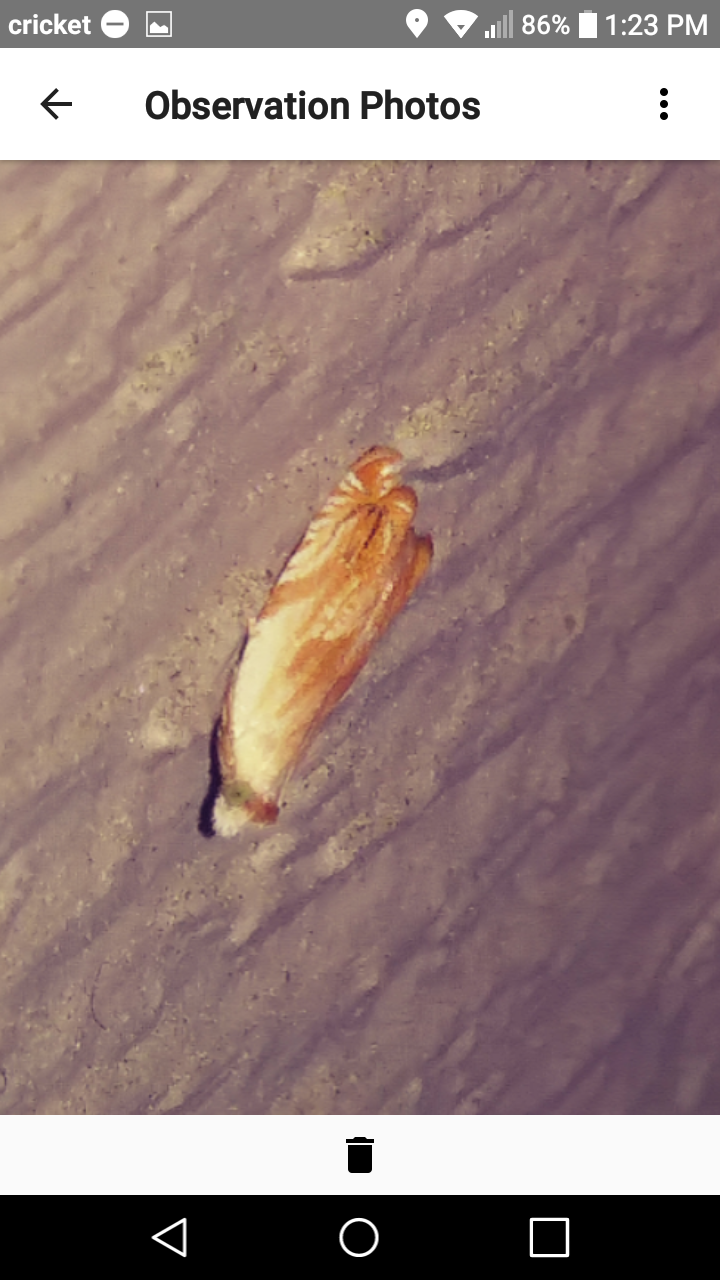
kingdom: Animalia
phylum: Arthropoda
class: Insecta
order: Lepidoptera
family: Tortricidae
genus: Ancylis
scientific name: Ancylis platanana
